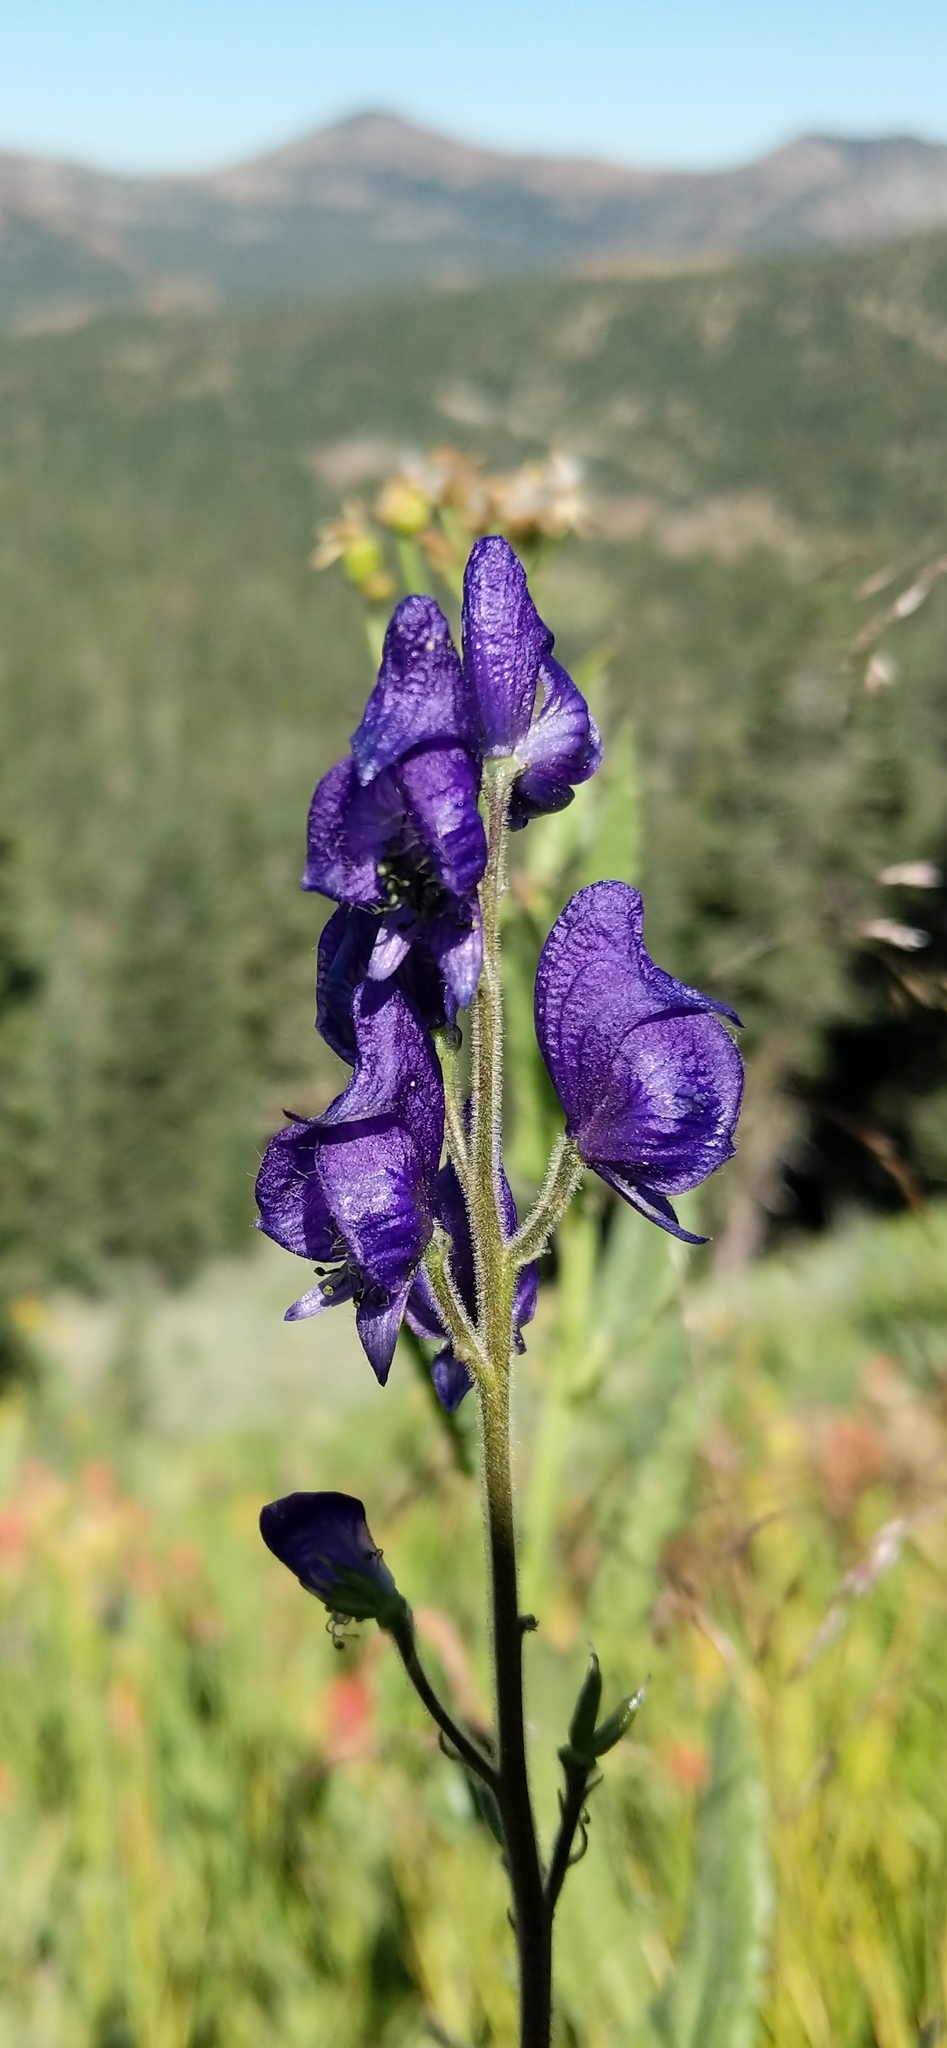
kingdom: Plantae
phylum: Tracheophyta
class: Magnoliopsida
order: Ranunculales
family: Ranunculaceae
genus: Aconitum
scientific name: Aconitum columbianum
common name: Columbia aconite
